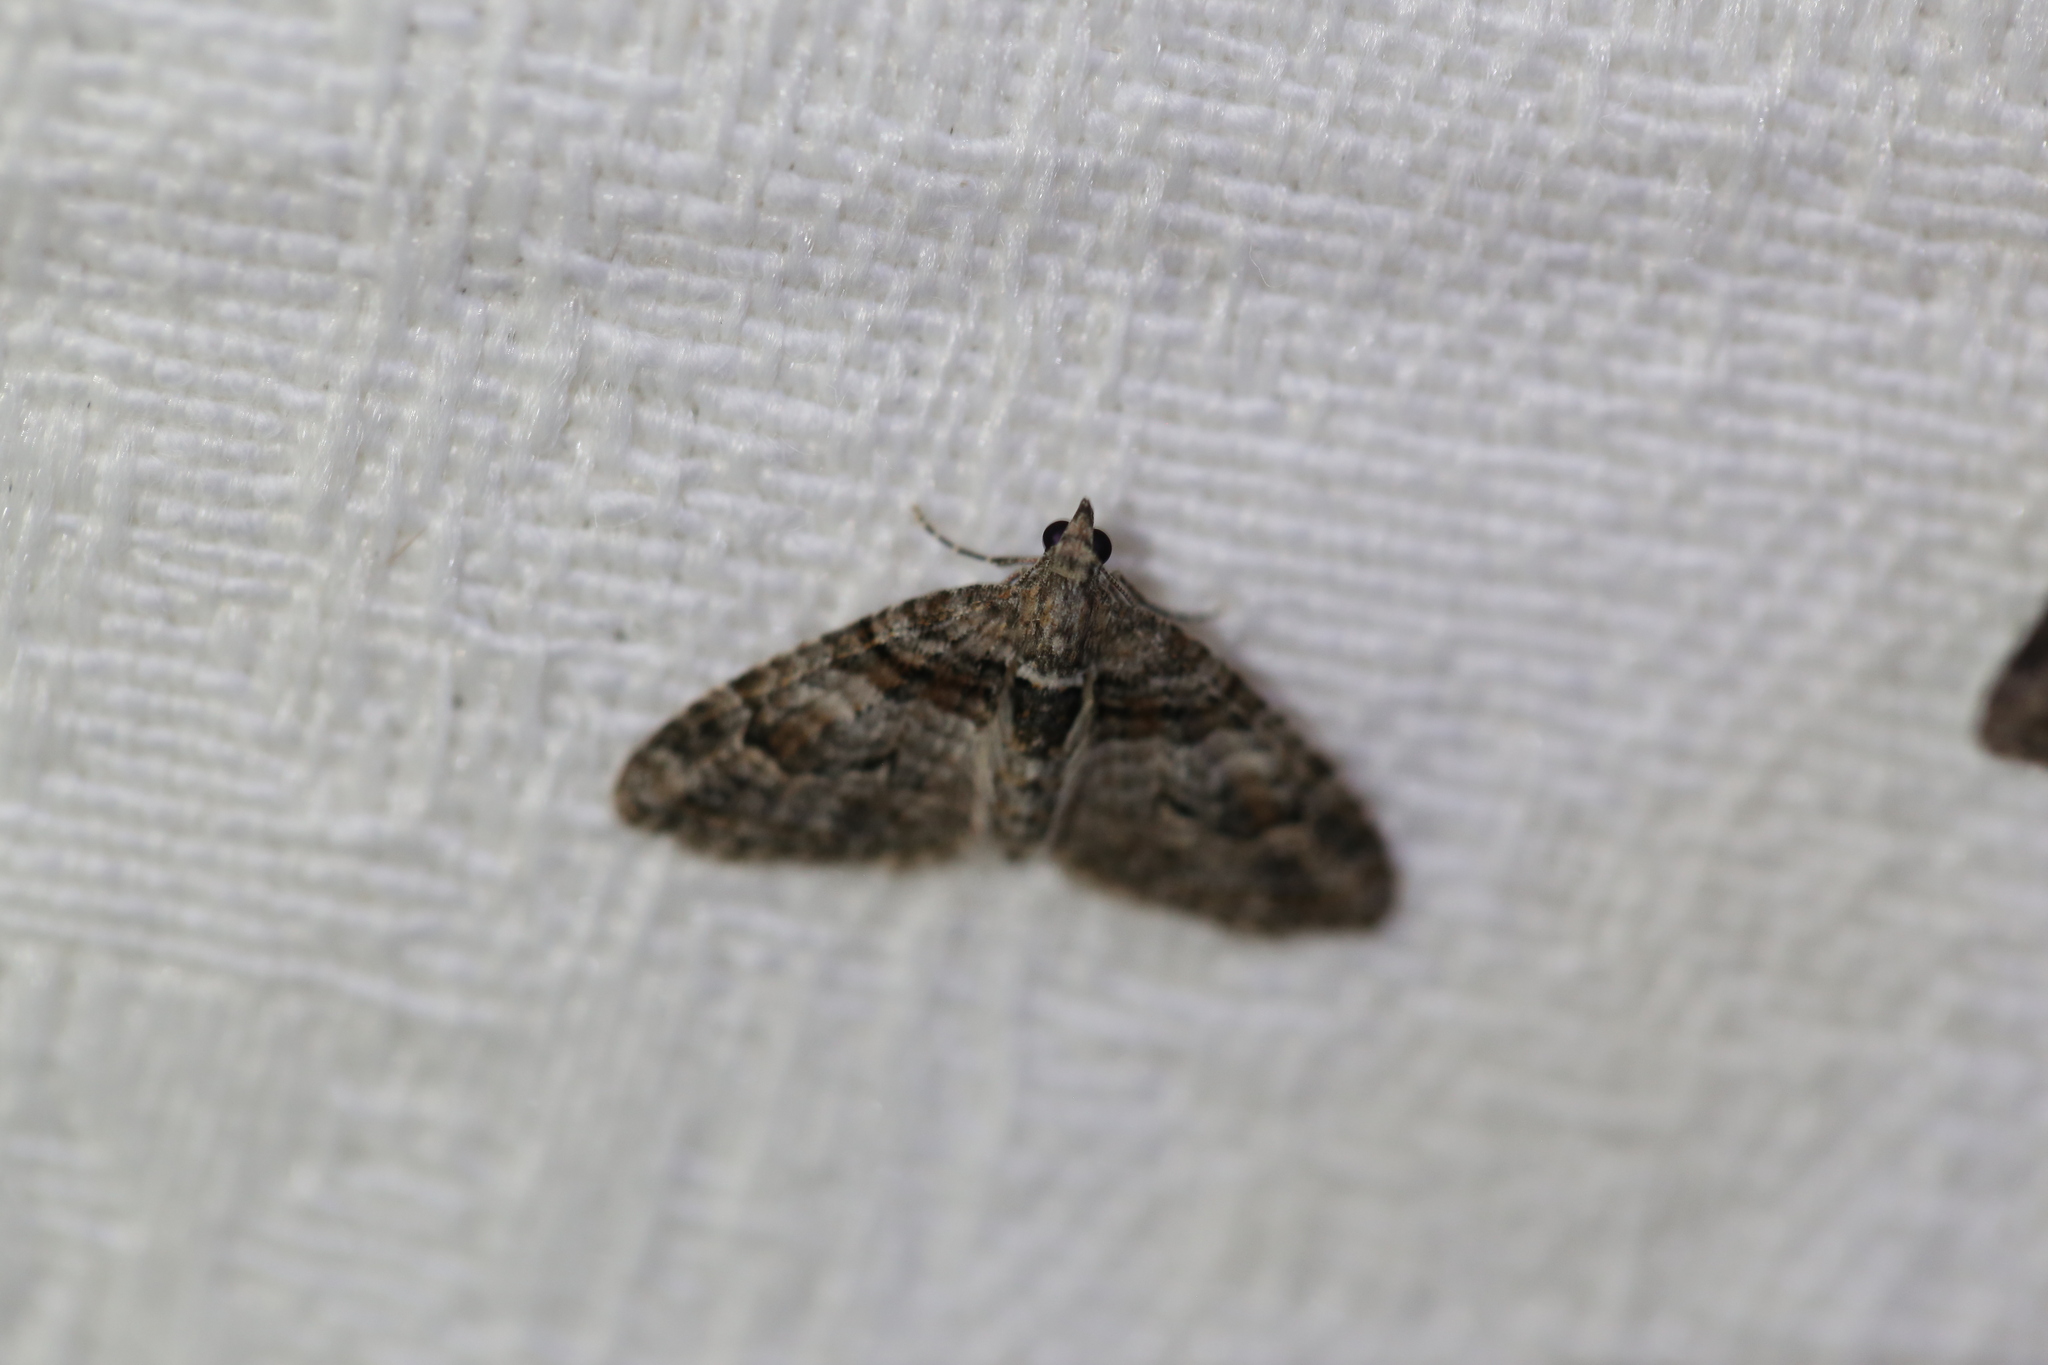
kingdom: Animalia
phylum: Arthropoda
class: Insecta
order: Lepidoptera
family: Geometridae
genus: Phrissogonus
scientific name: Phrissogonus laticostata
